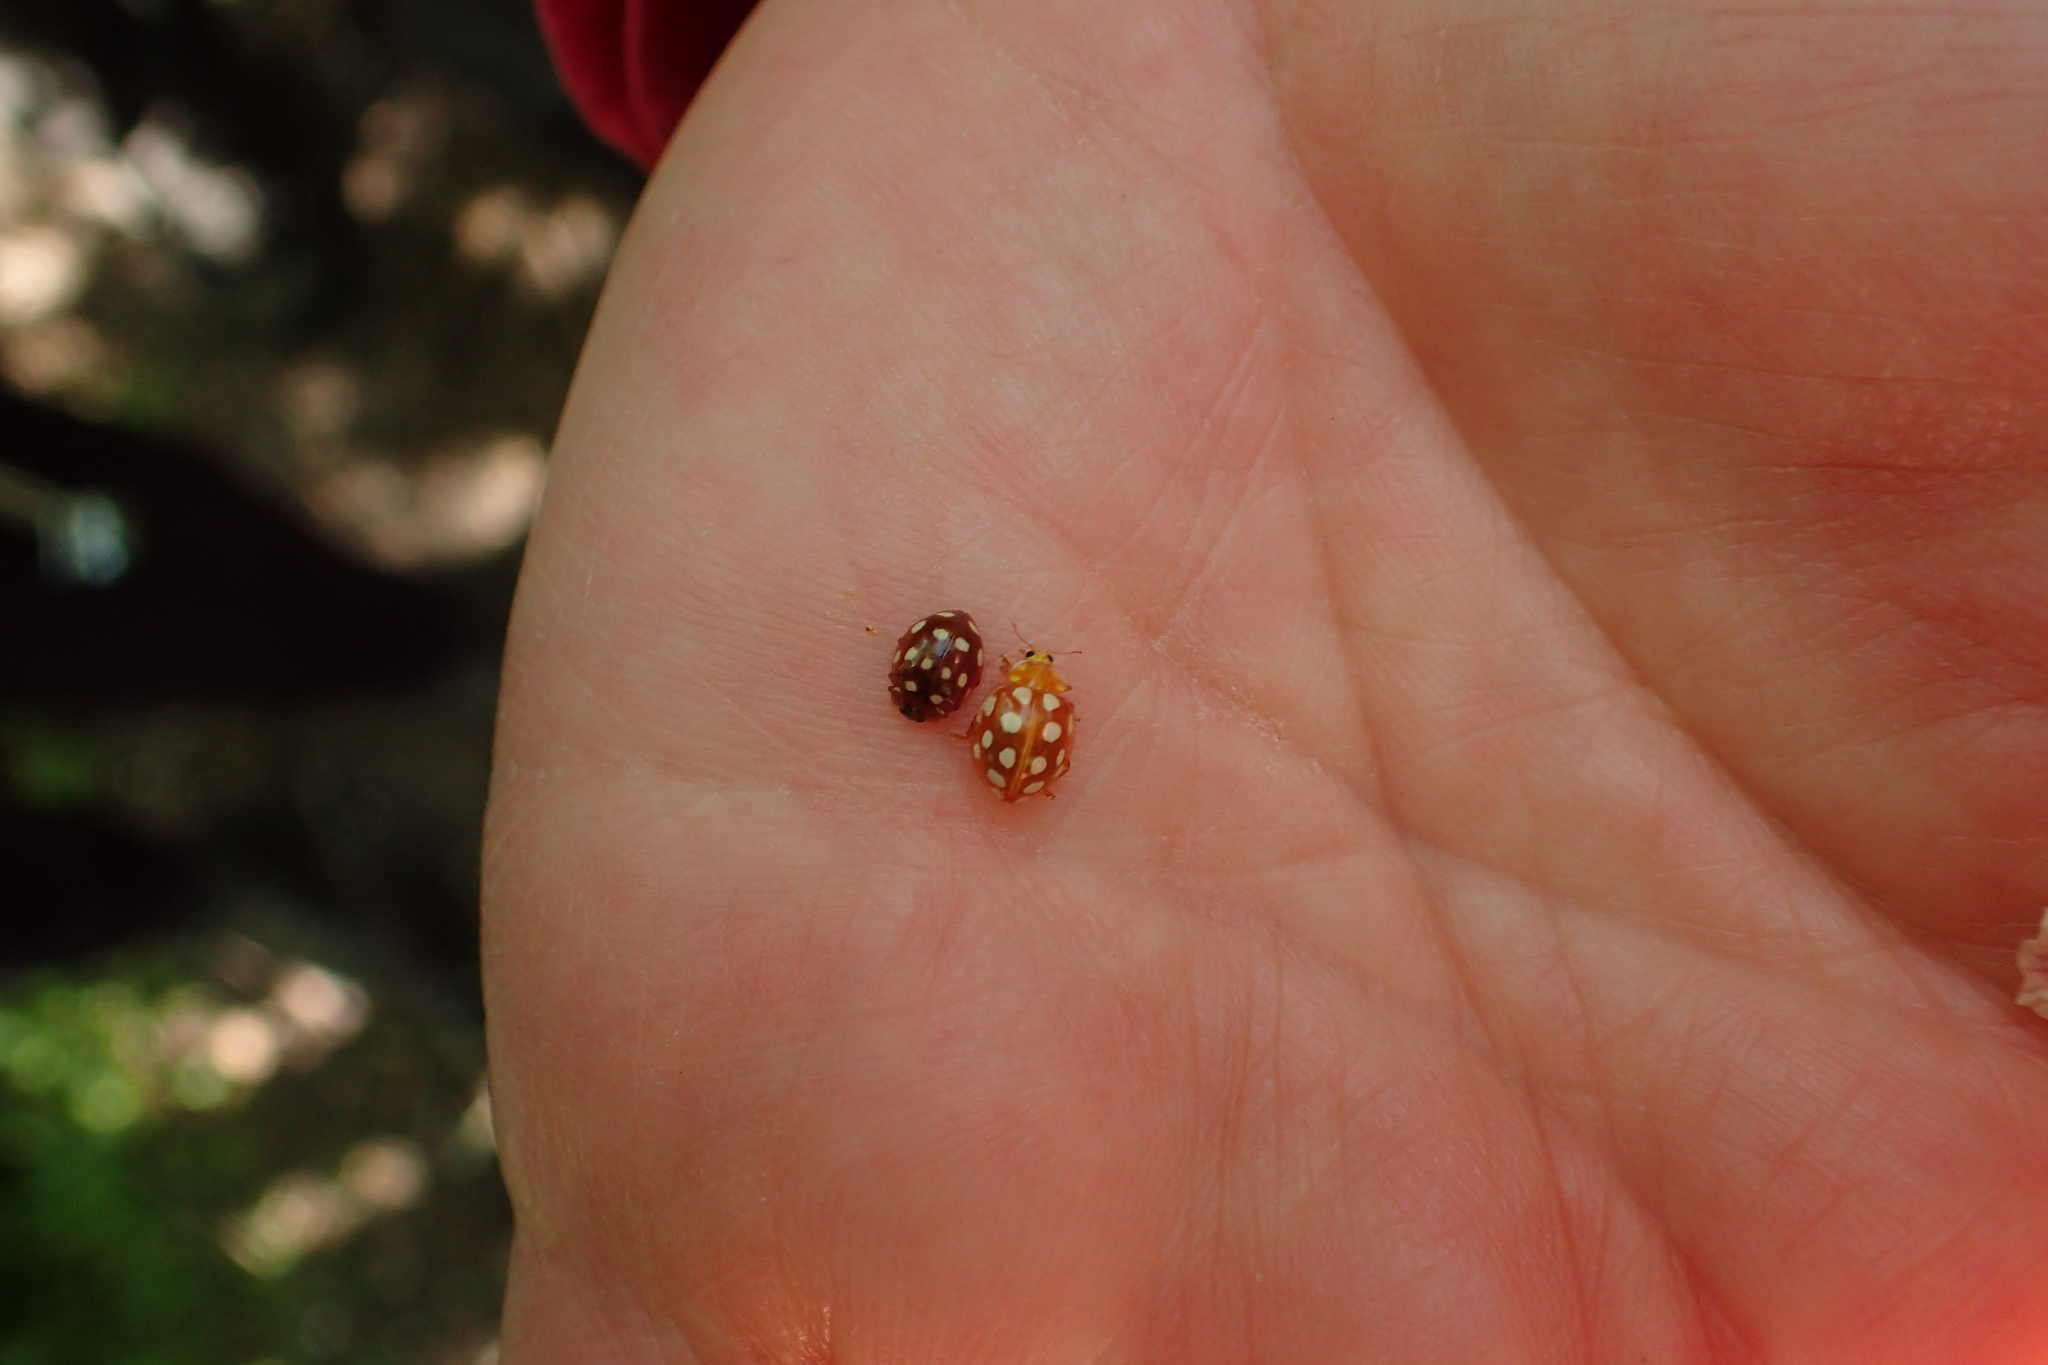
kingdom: Animalia
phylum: Arthropoda
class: Insecta
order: Coleoptera
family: Coccinellidae
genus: Halyzia
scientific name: Halyzia sedecimguttata
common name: Orange ladybird
